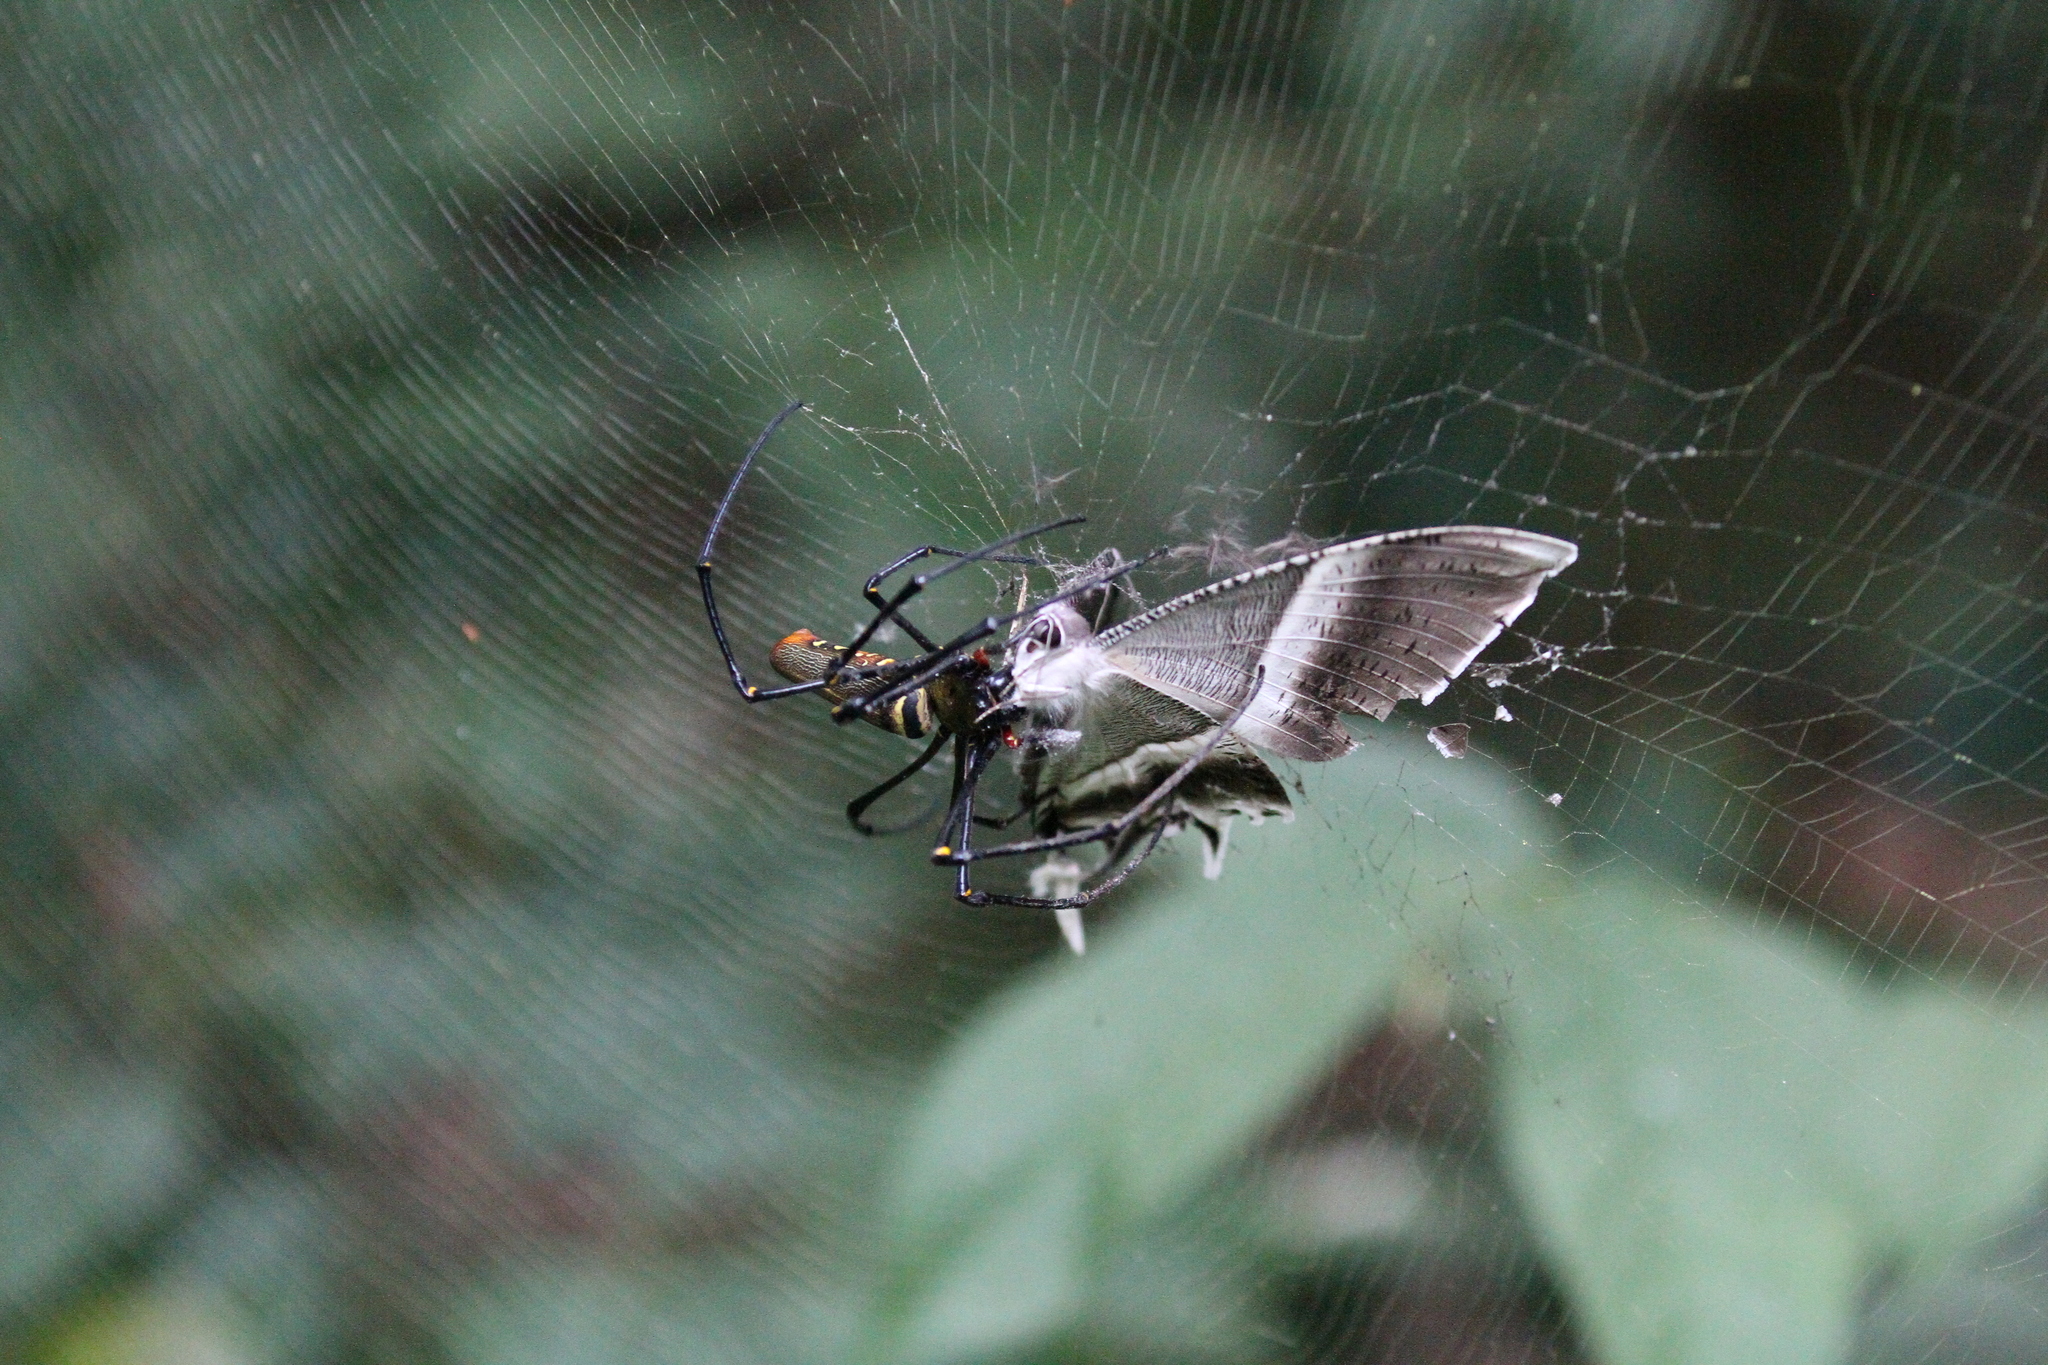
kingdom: Animalia
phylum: Arthropoda
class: Arachnida
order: Araneae
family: Araneidae
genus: Nephila
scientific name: Nephila pilipes
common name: Giant golden orb weaver
